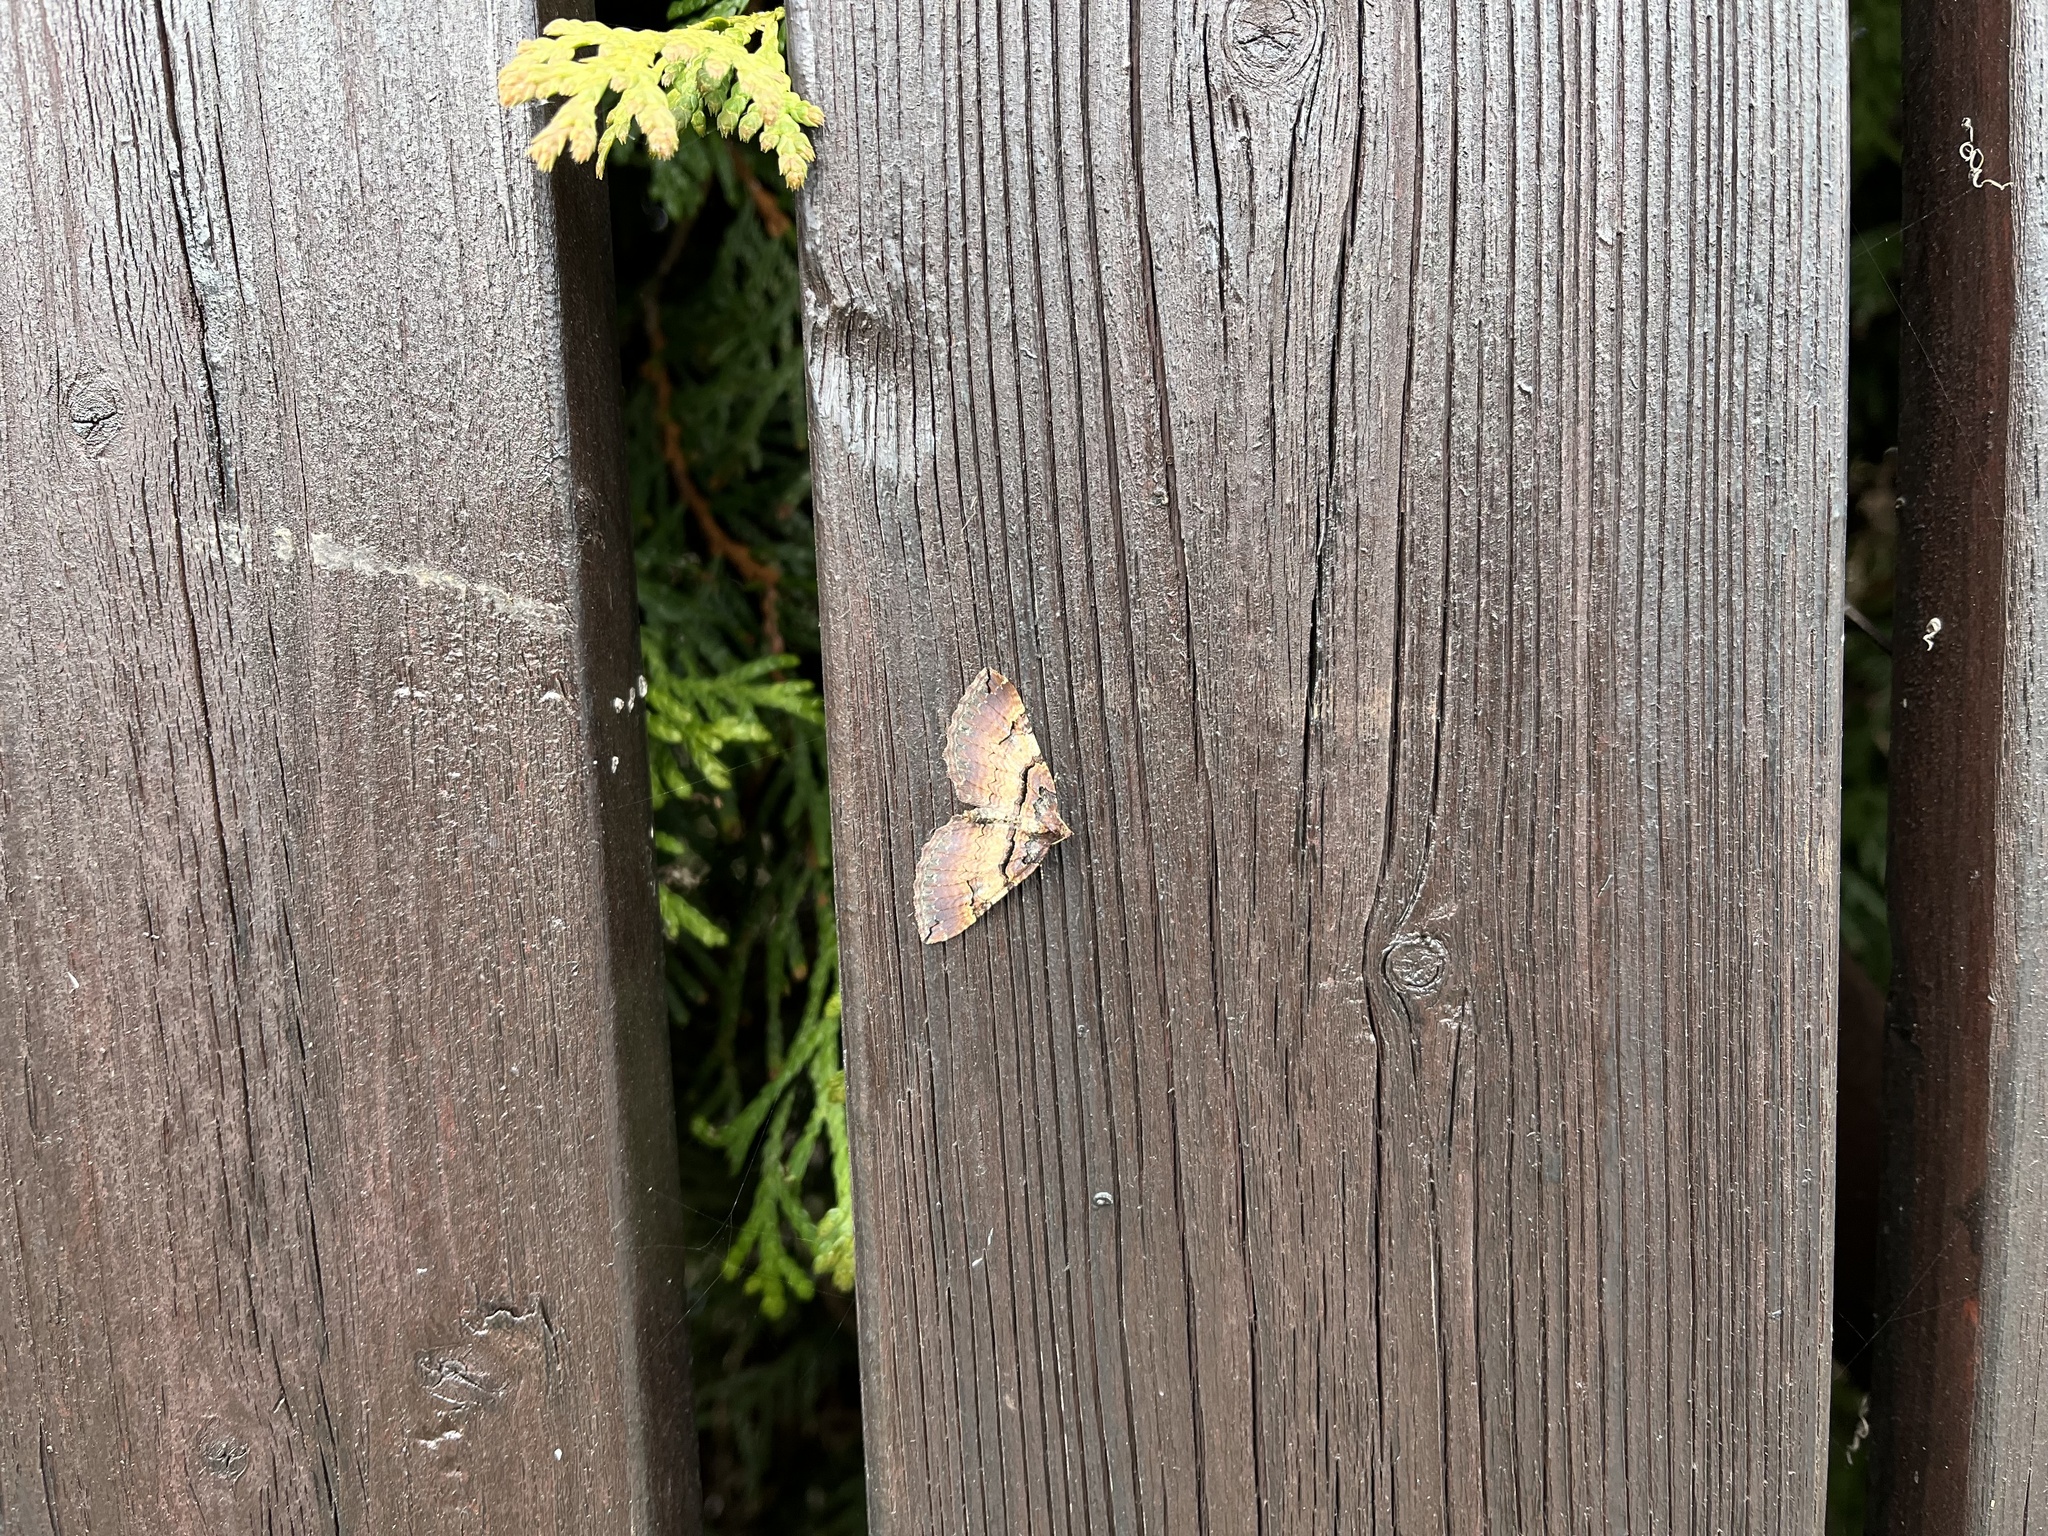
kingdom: Animalia
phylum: Arthropoda
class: Insecta
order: Lepidoptera
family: Geometridae
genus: Anticlea
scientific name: Anticlea badiata
